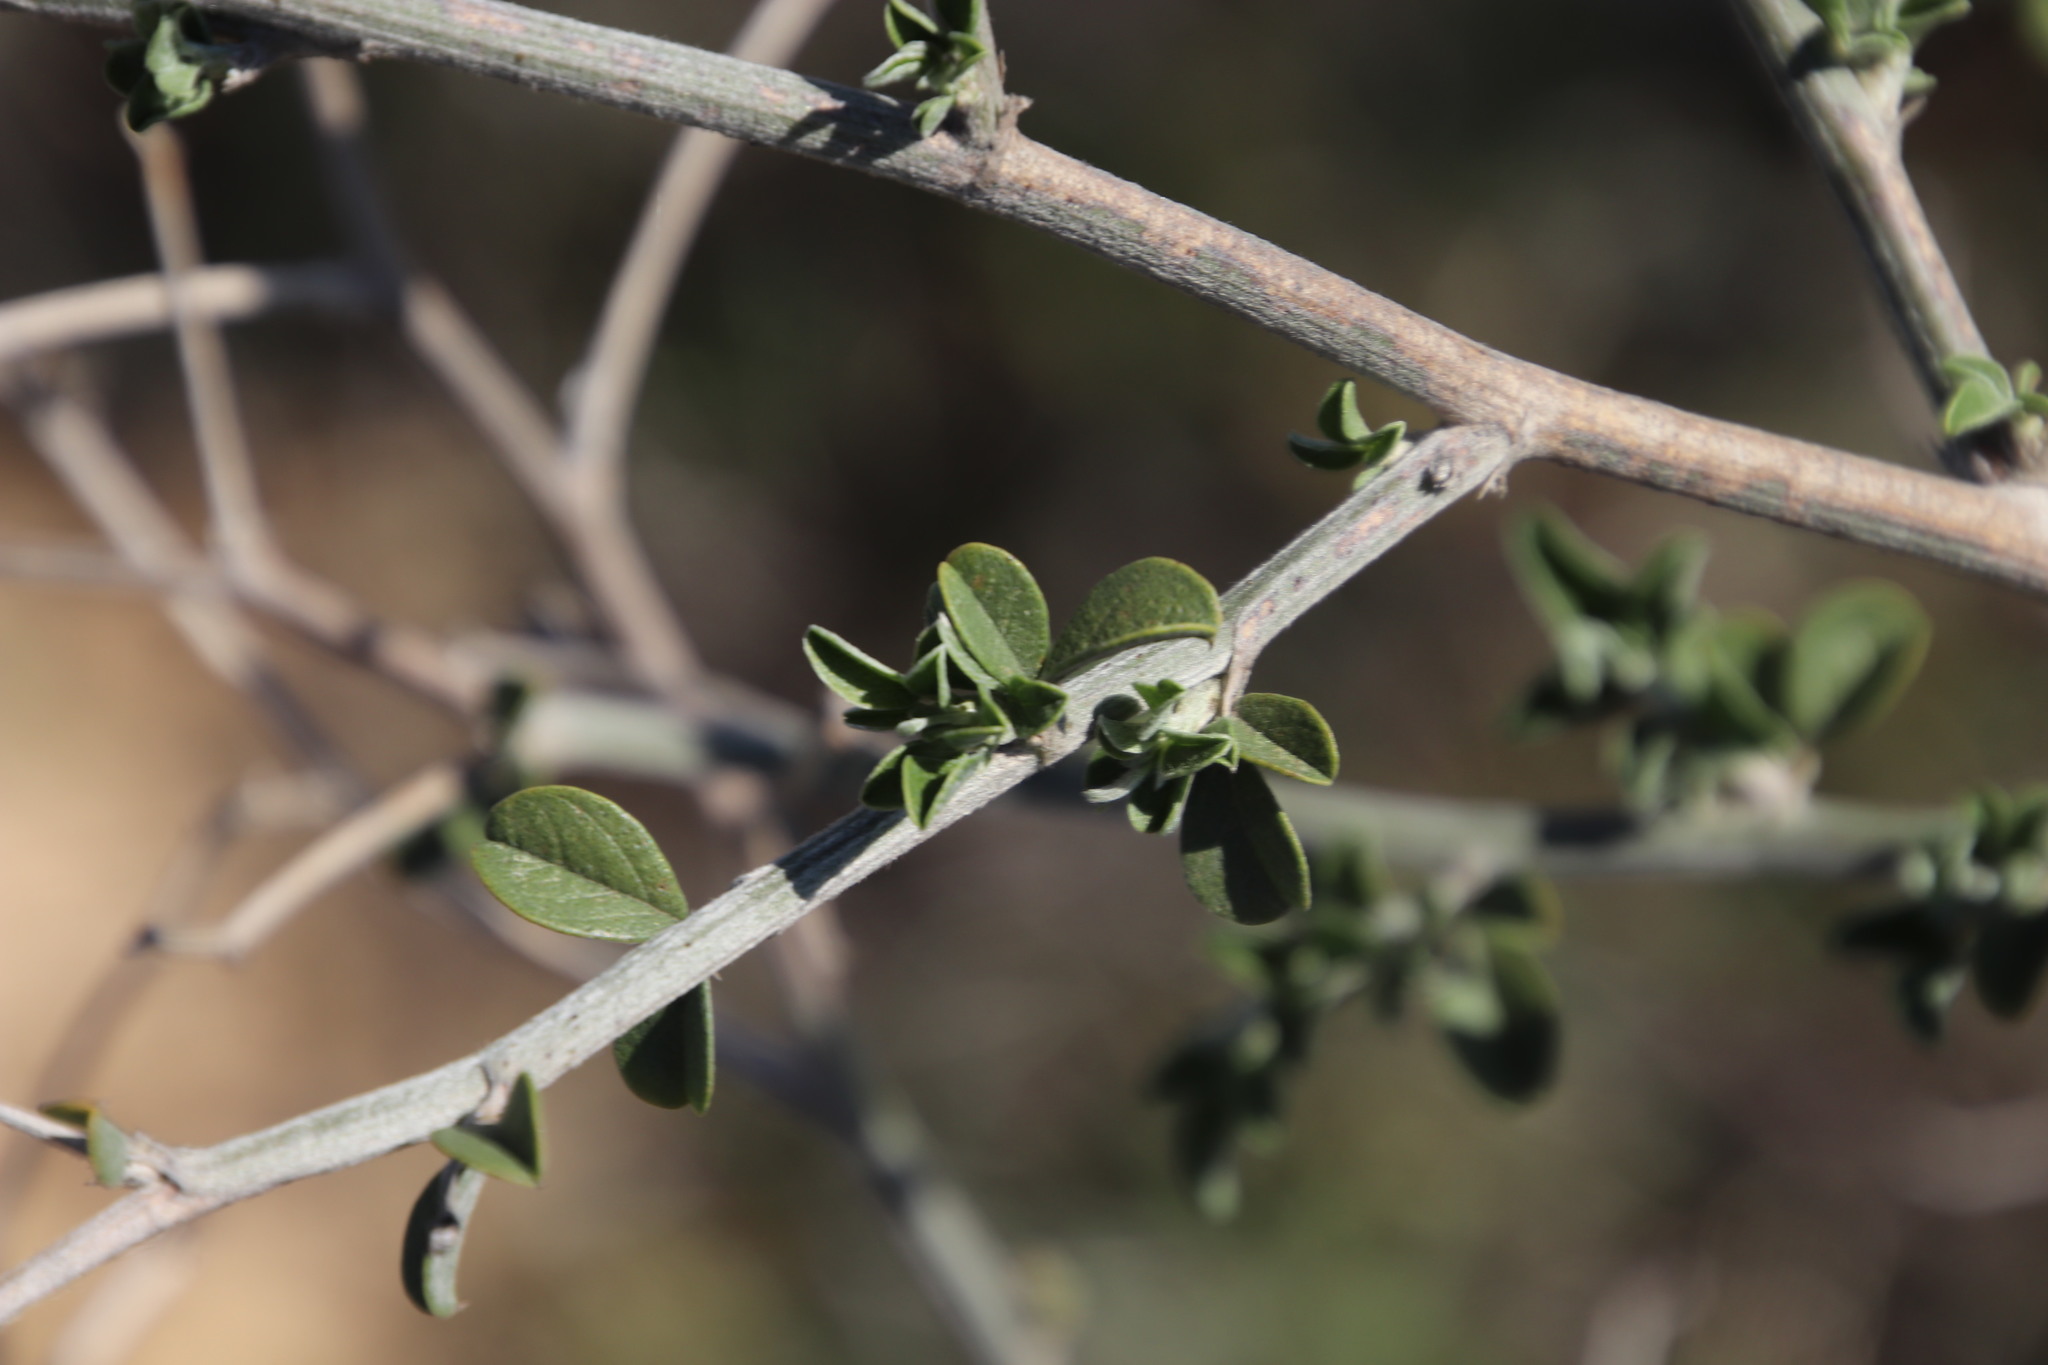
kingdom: Plantae
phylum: Tracheophyta
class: Magnoliopsida
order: Fabales
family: Fabaceae
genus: Psoralea
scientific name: Psoralea hirta
